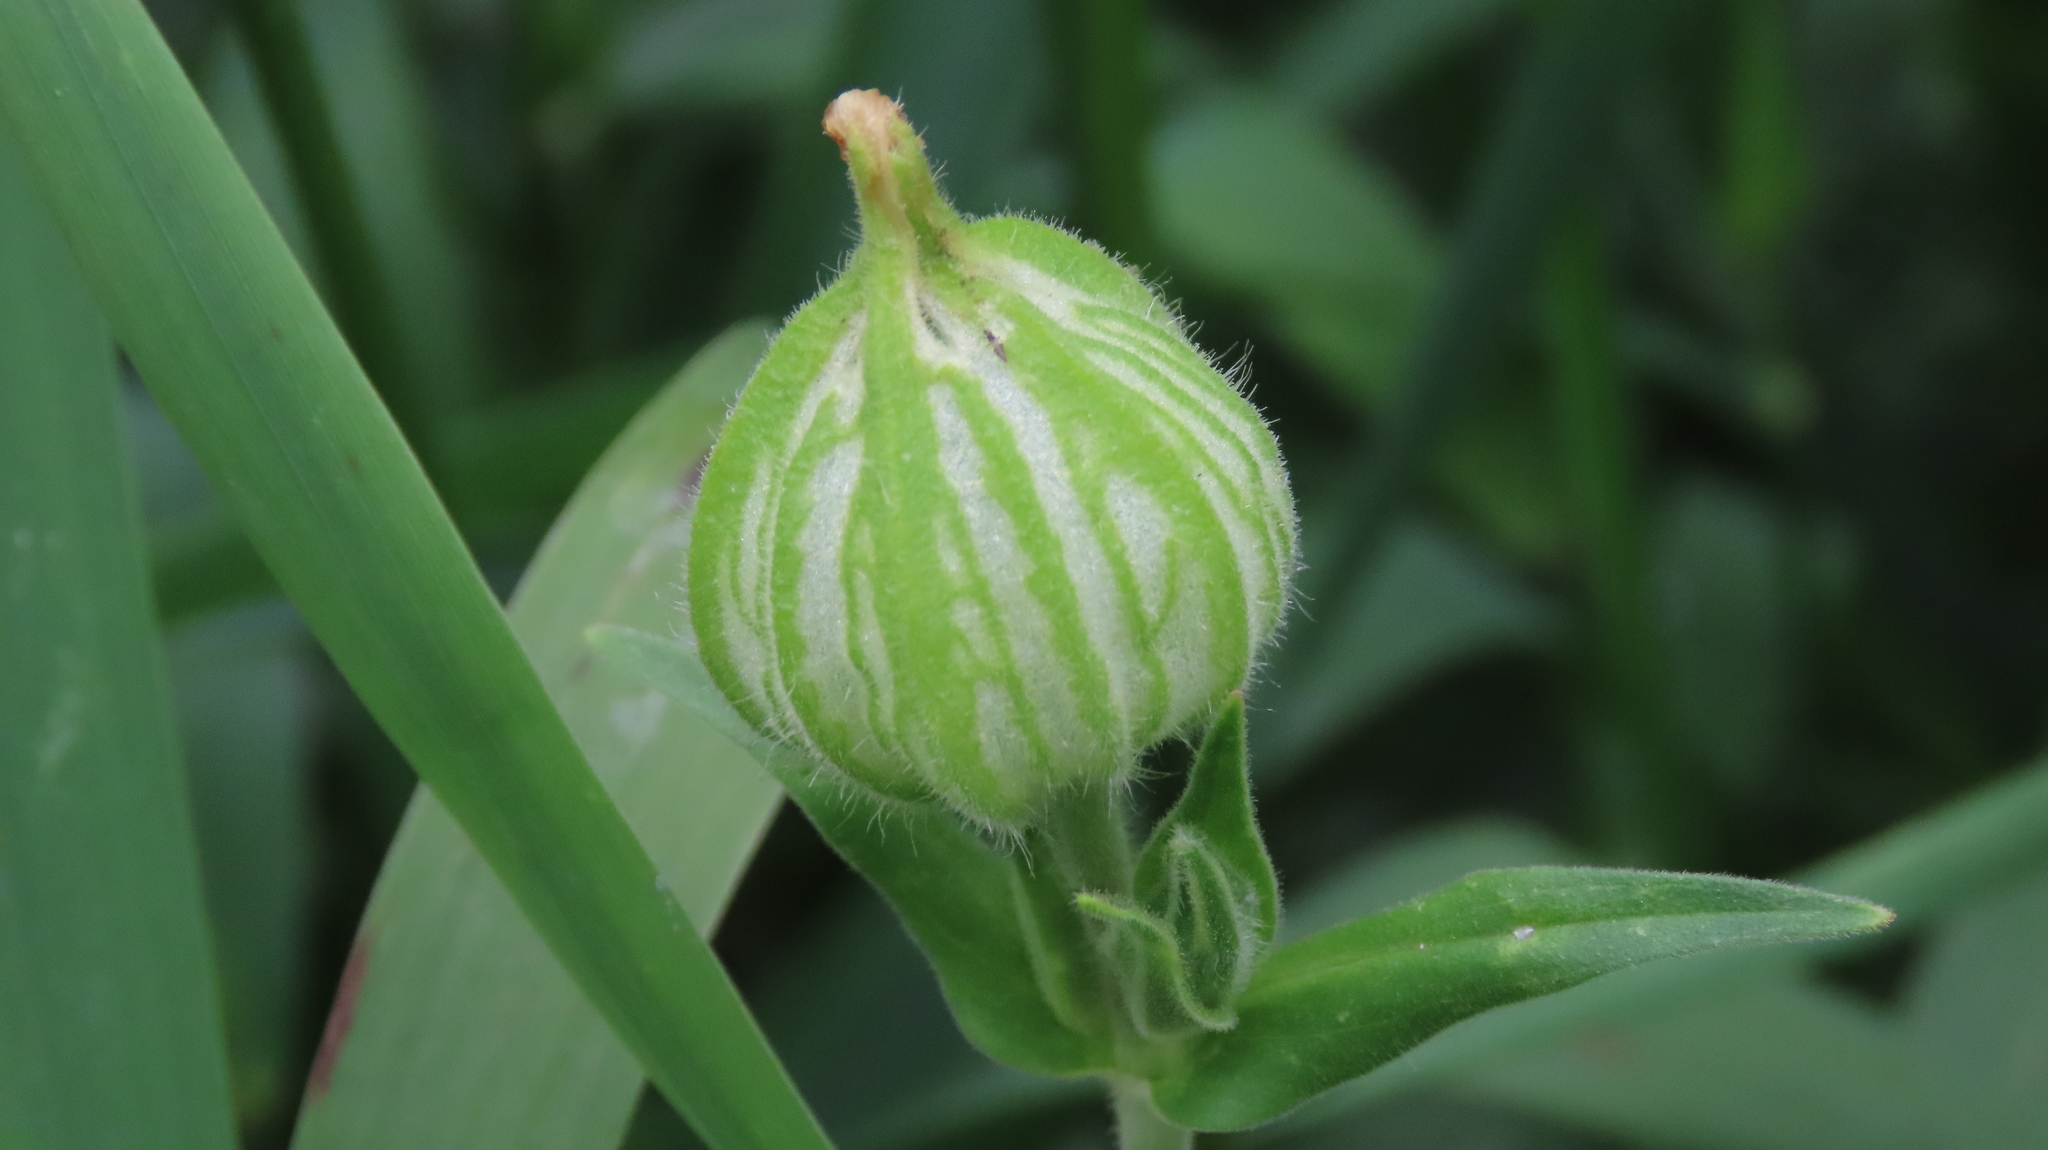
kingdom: Plantae
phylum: Tracheophyta
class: Magnoliopsida
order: Caryophyllales
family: Caryophyllaceae
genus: Silene
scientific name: Silene latifolia
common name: White campion
